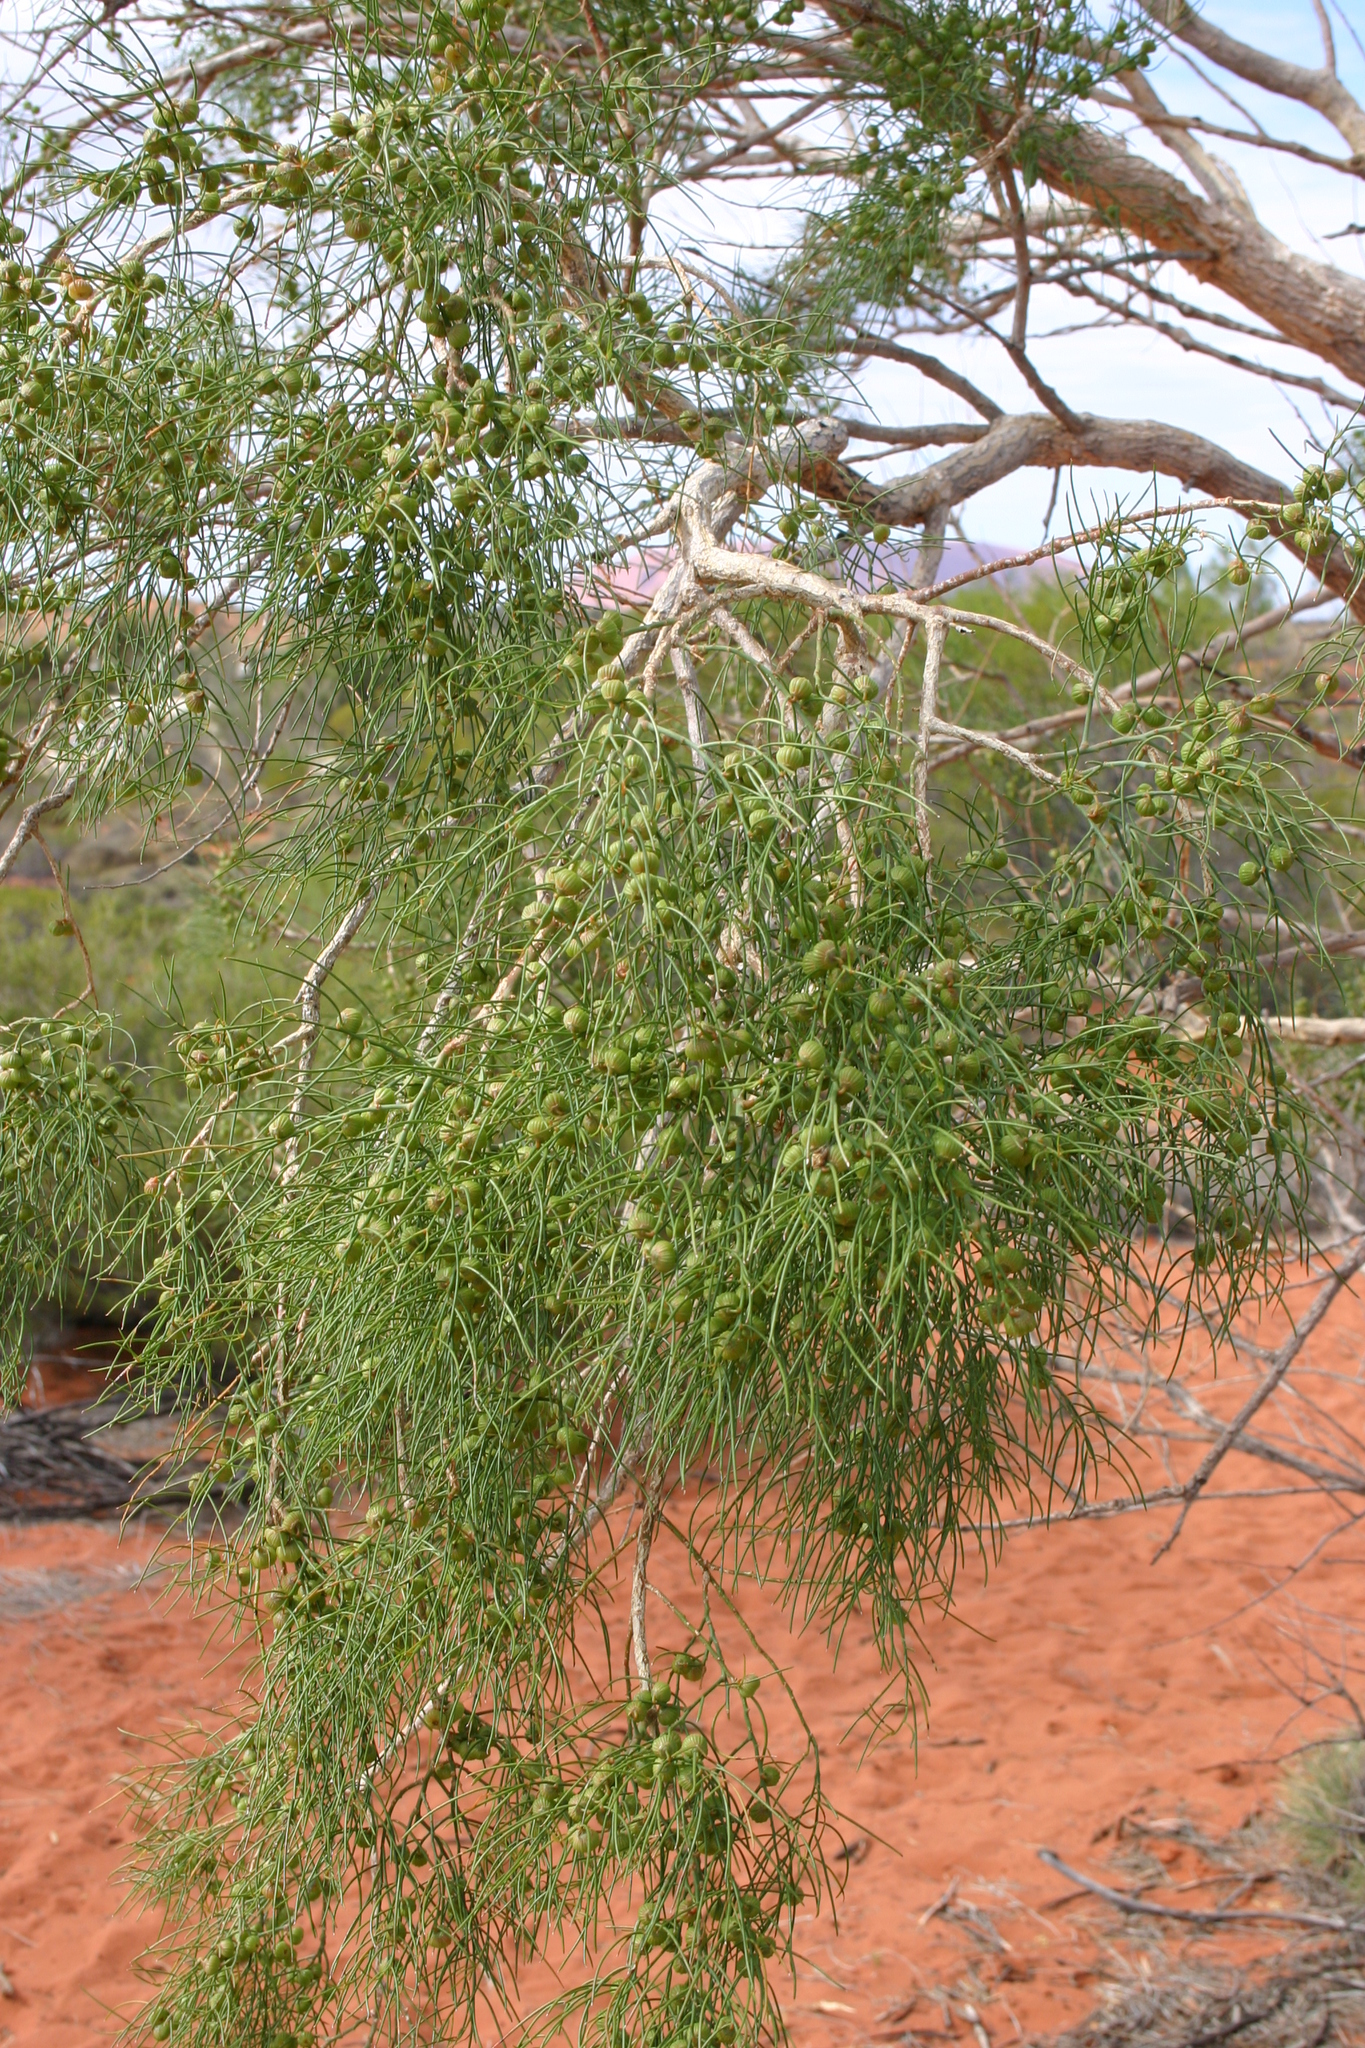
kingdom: Plantae
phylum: Tracheophyta
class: Magnoliopsida
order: Brassicales
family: Gyrostemonaceae
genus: Gyrostemon
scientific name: Gyrostemon ramulosus
